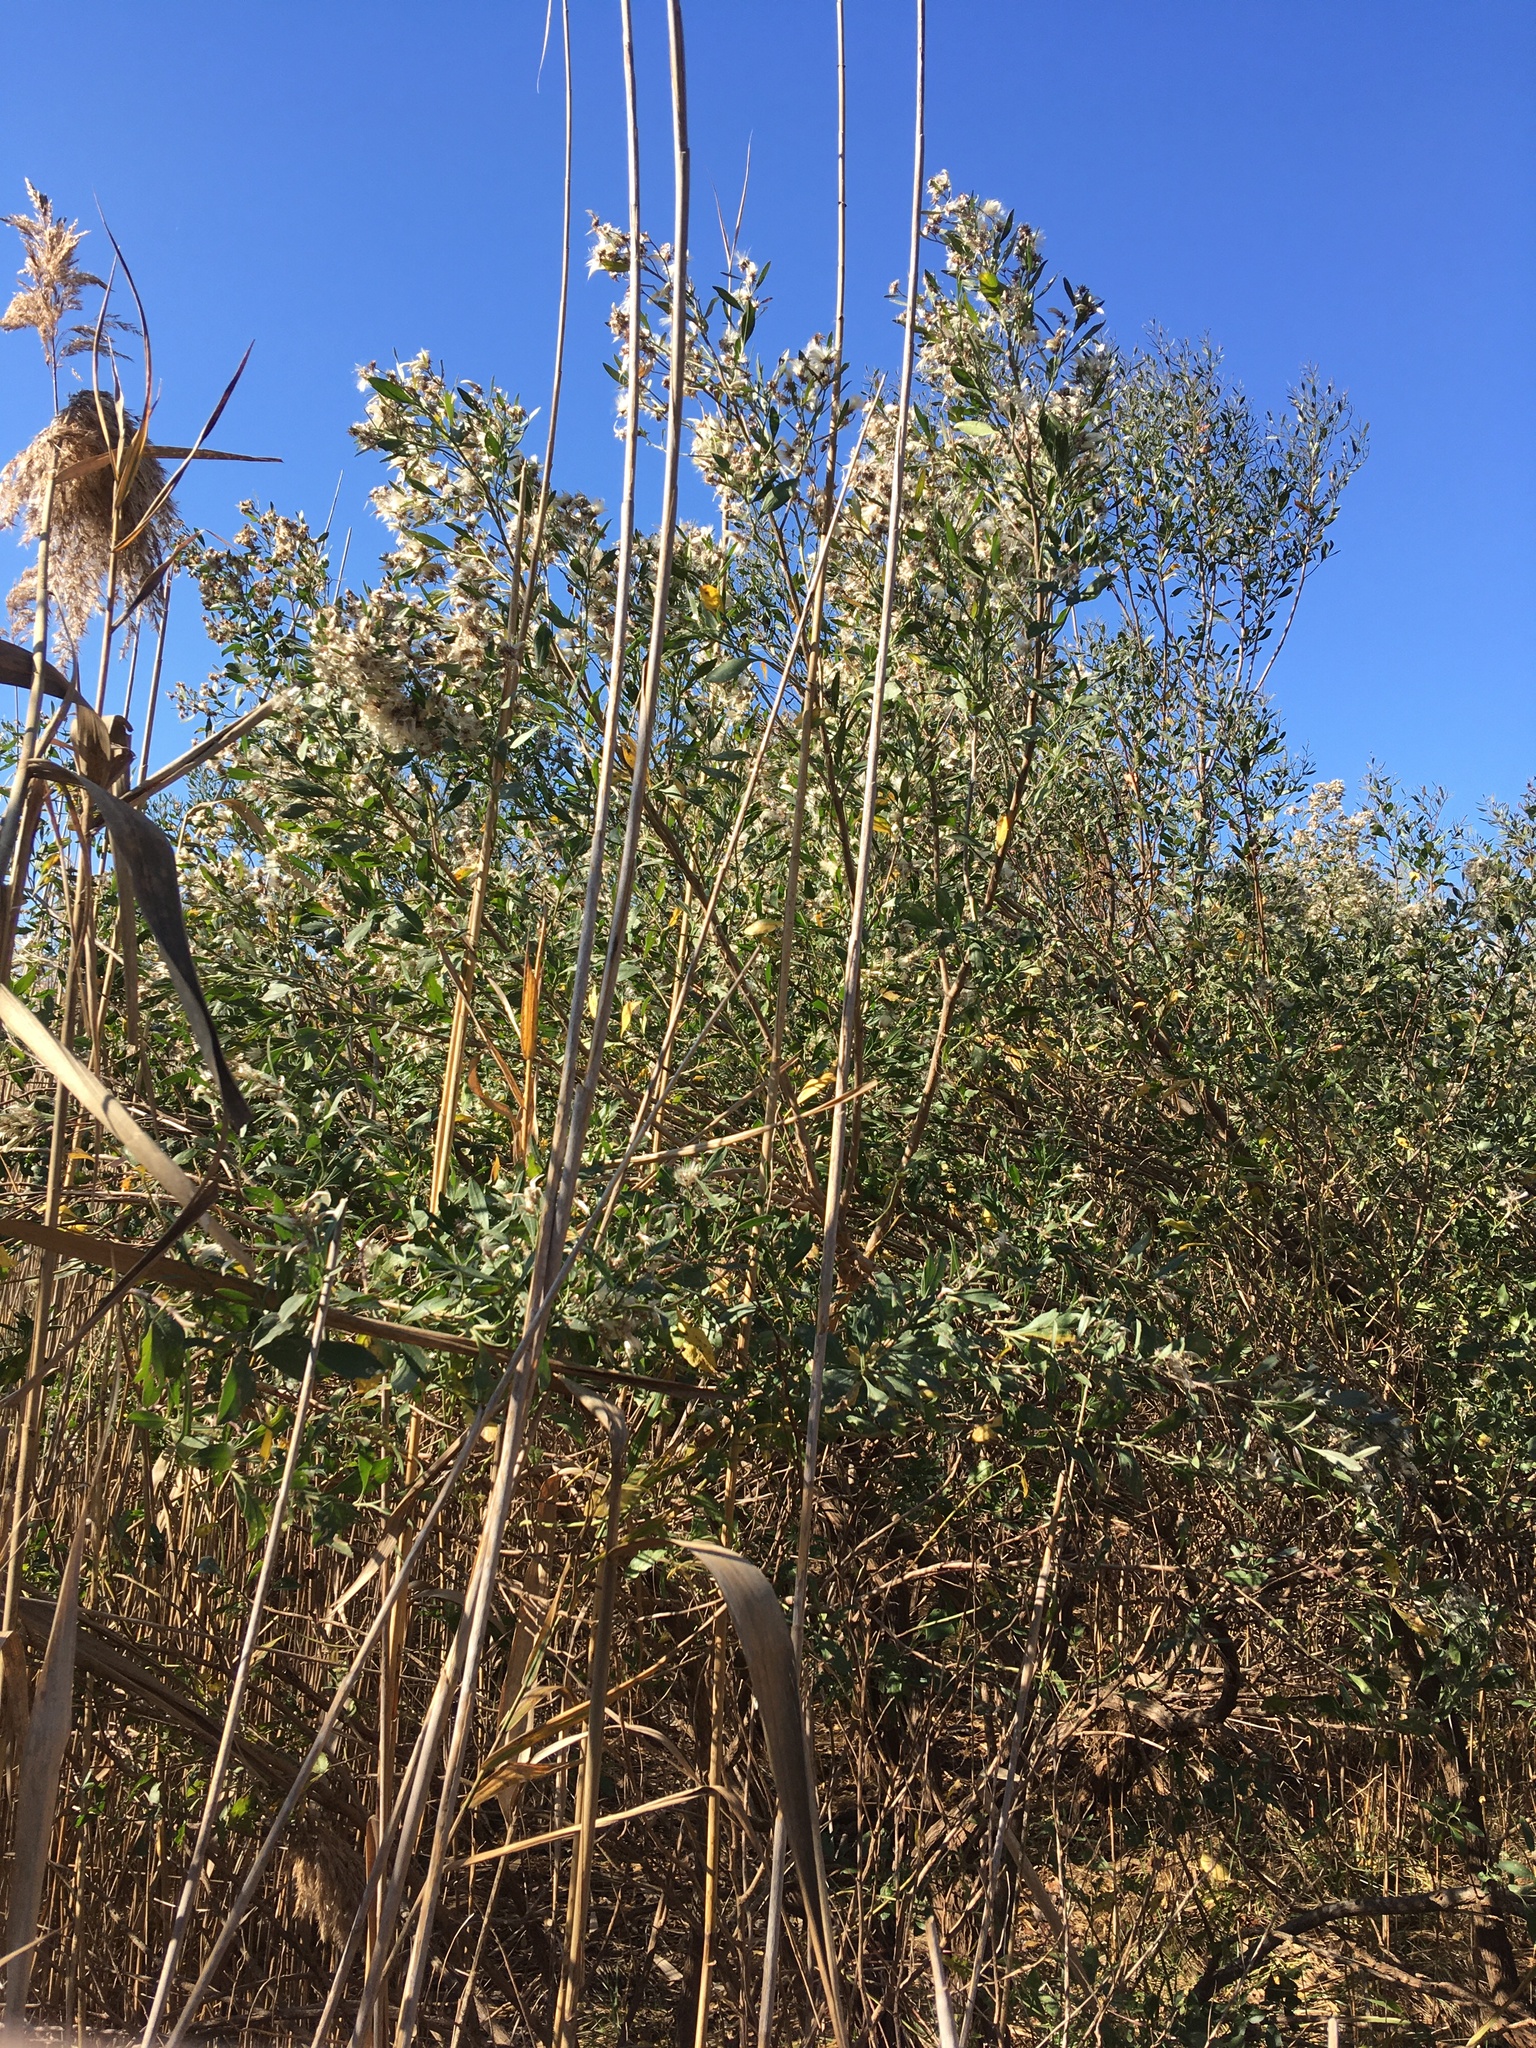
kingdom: Plantae
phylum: Tracheophyta
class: Magnoliopsida
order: Asterales
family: Asteraceae
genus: Baccharis
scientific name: Baccharis halimifolia
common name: Eastern baccharis
